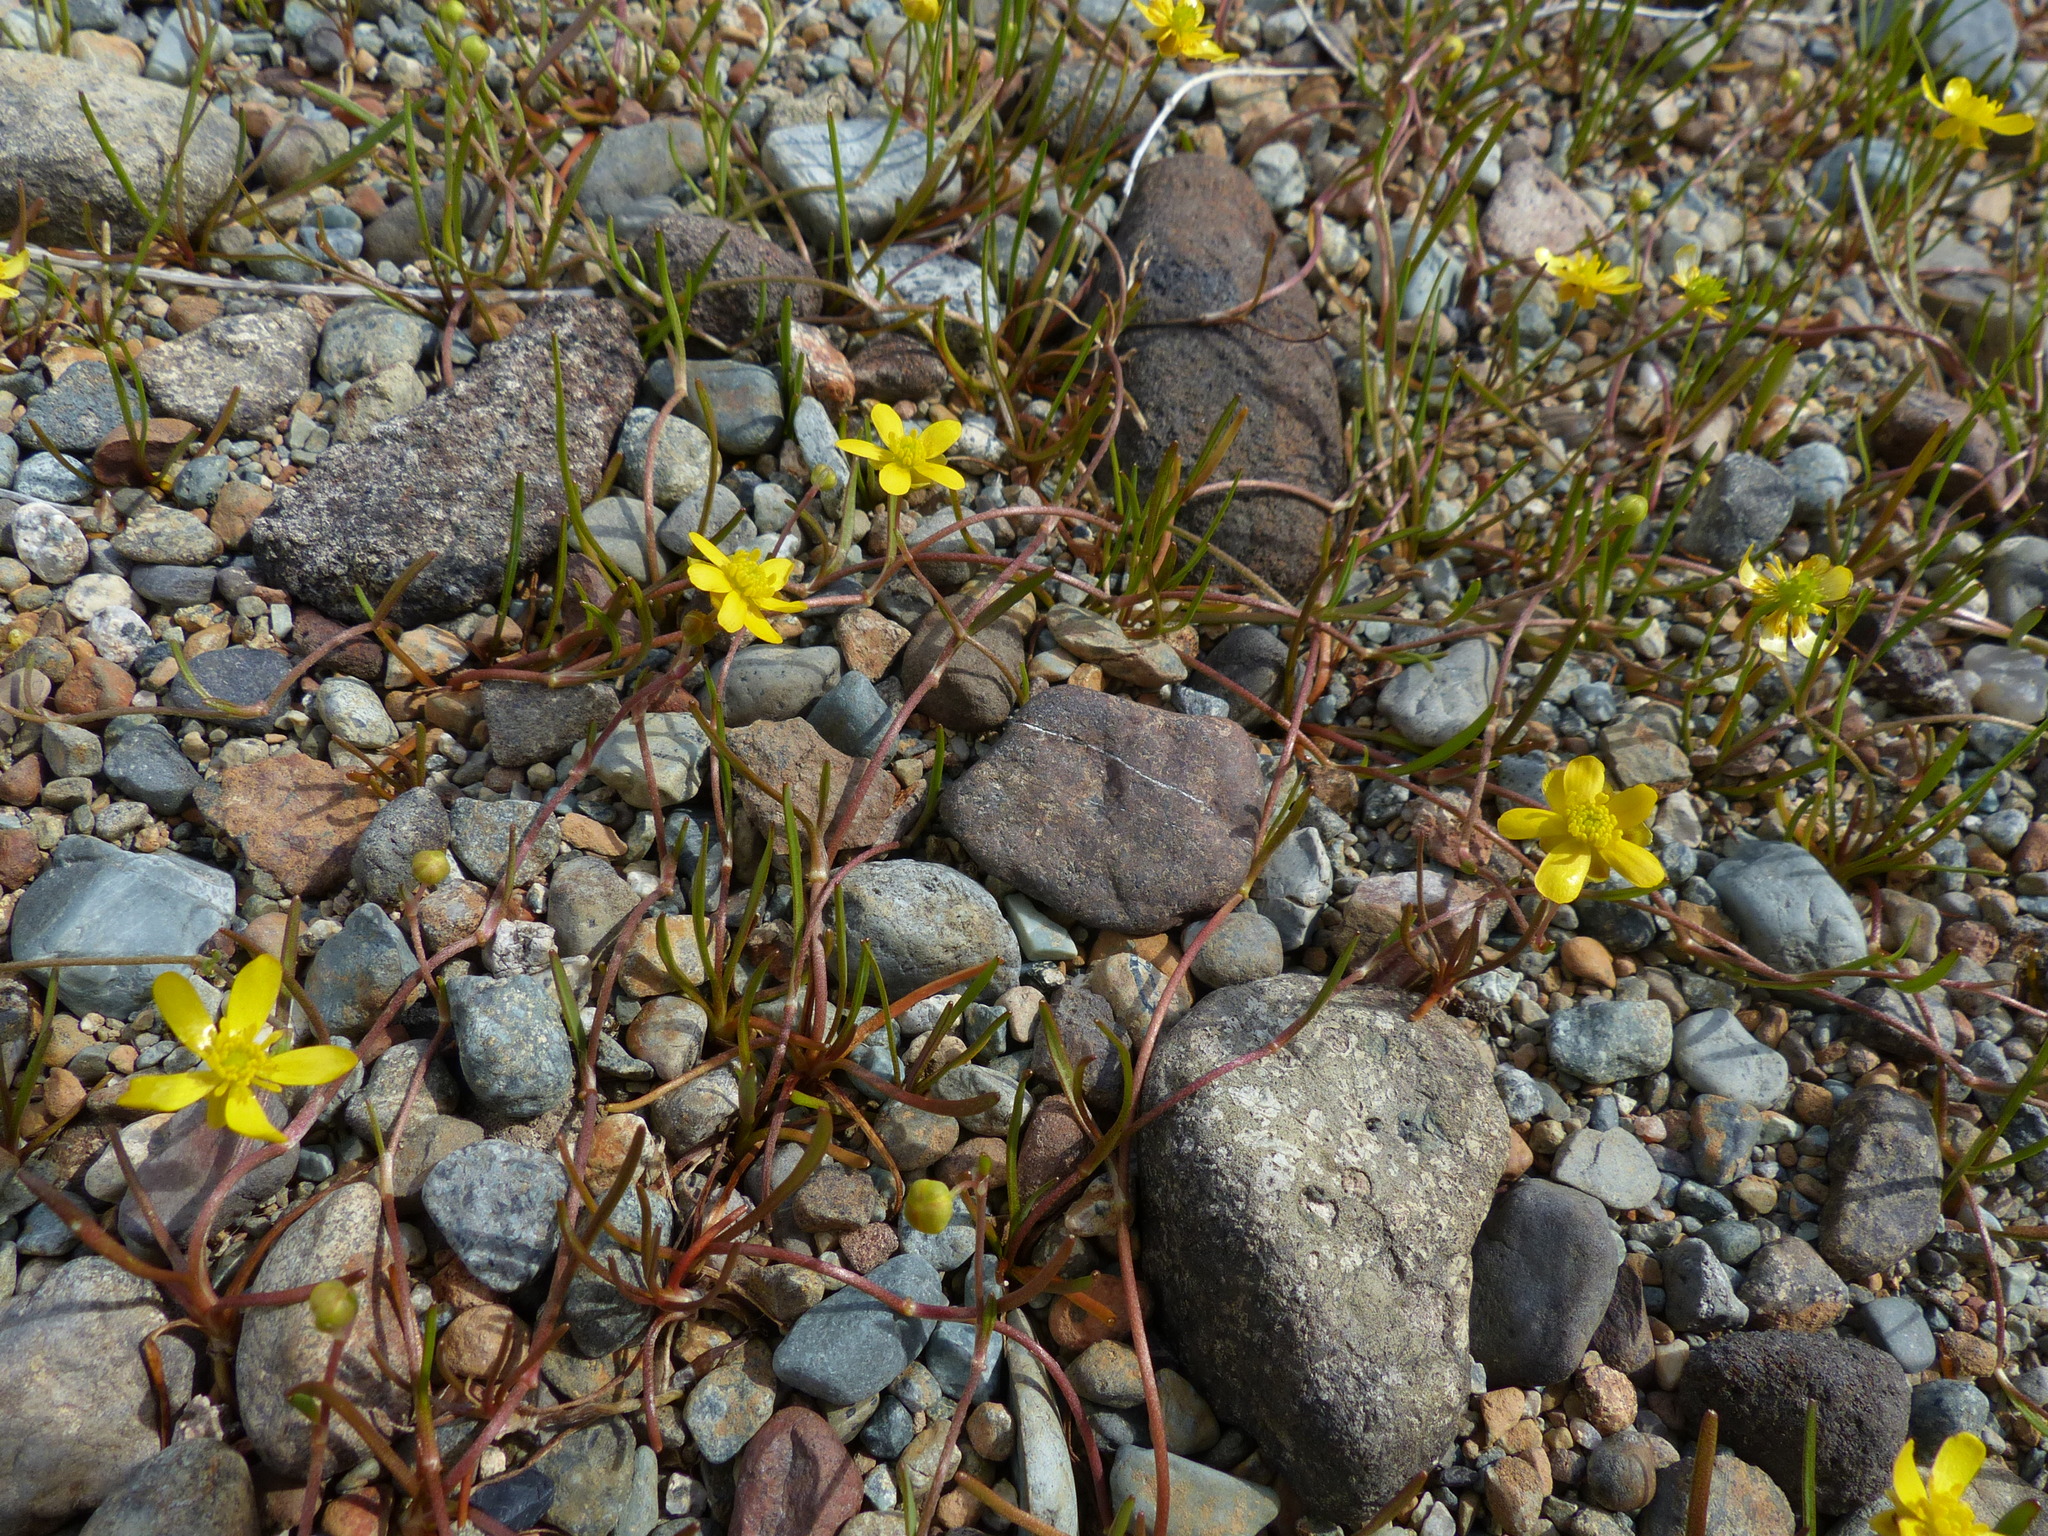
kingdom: Plantae
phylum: Tracheophyta
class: Magnoliopsida
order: Ranunculales
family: Ranunculaceae
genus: Ranunculus
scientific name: Ranunculus flammula
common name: Lesser spearwort
